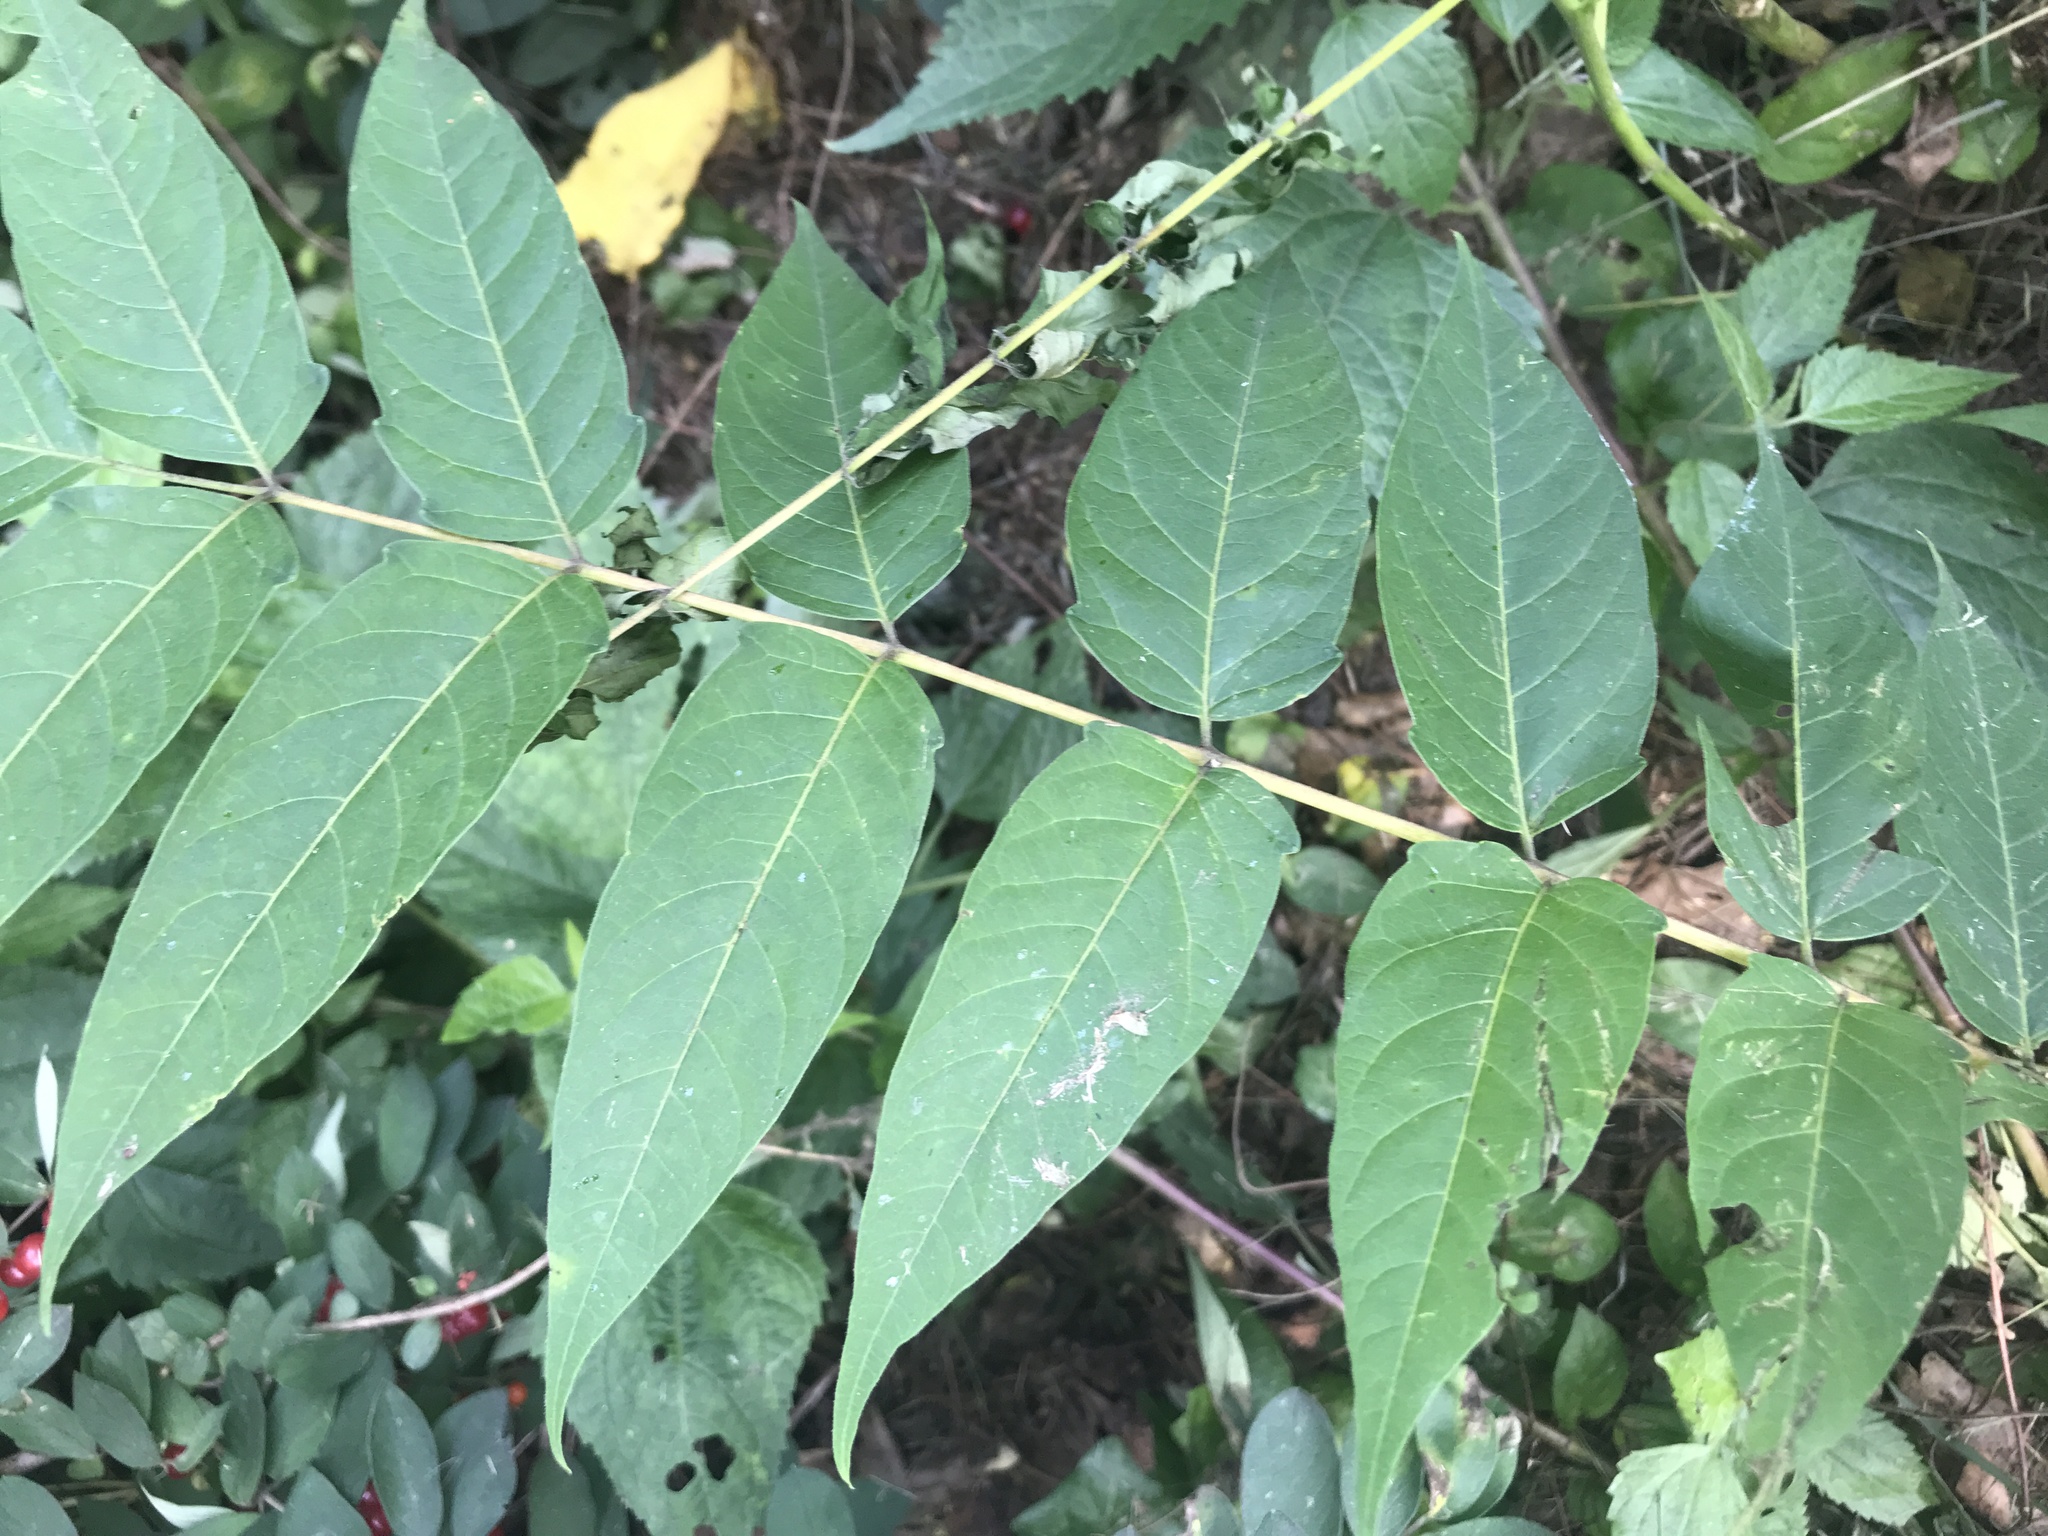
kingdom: Plantae
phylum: Tracheophyta
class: Magnoliopsida
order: Sapindales
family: Simaroubaceae
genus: Ailanthus
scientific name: Ailanthus altissima
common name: Tree-of-heaven
